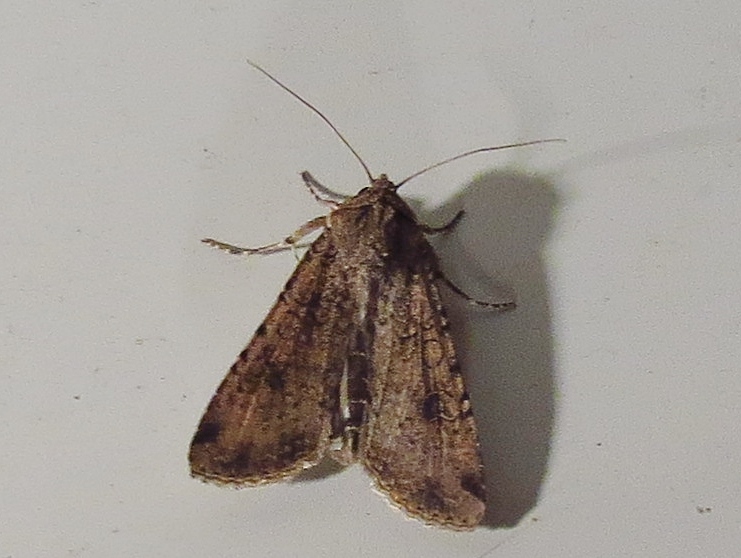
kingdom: Animalia
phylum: Arthropoda
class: Insecta
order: Lepidoptera
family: Noctuidae
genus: Peridroma
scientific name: Peridroma saucia
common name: Pearly underwing
